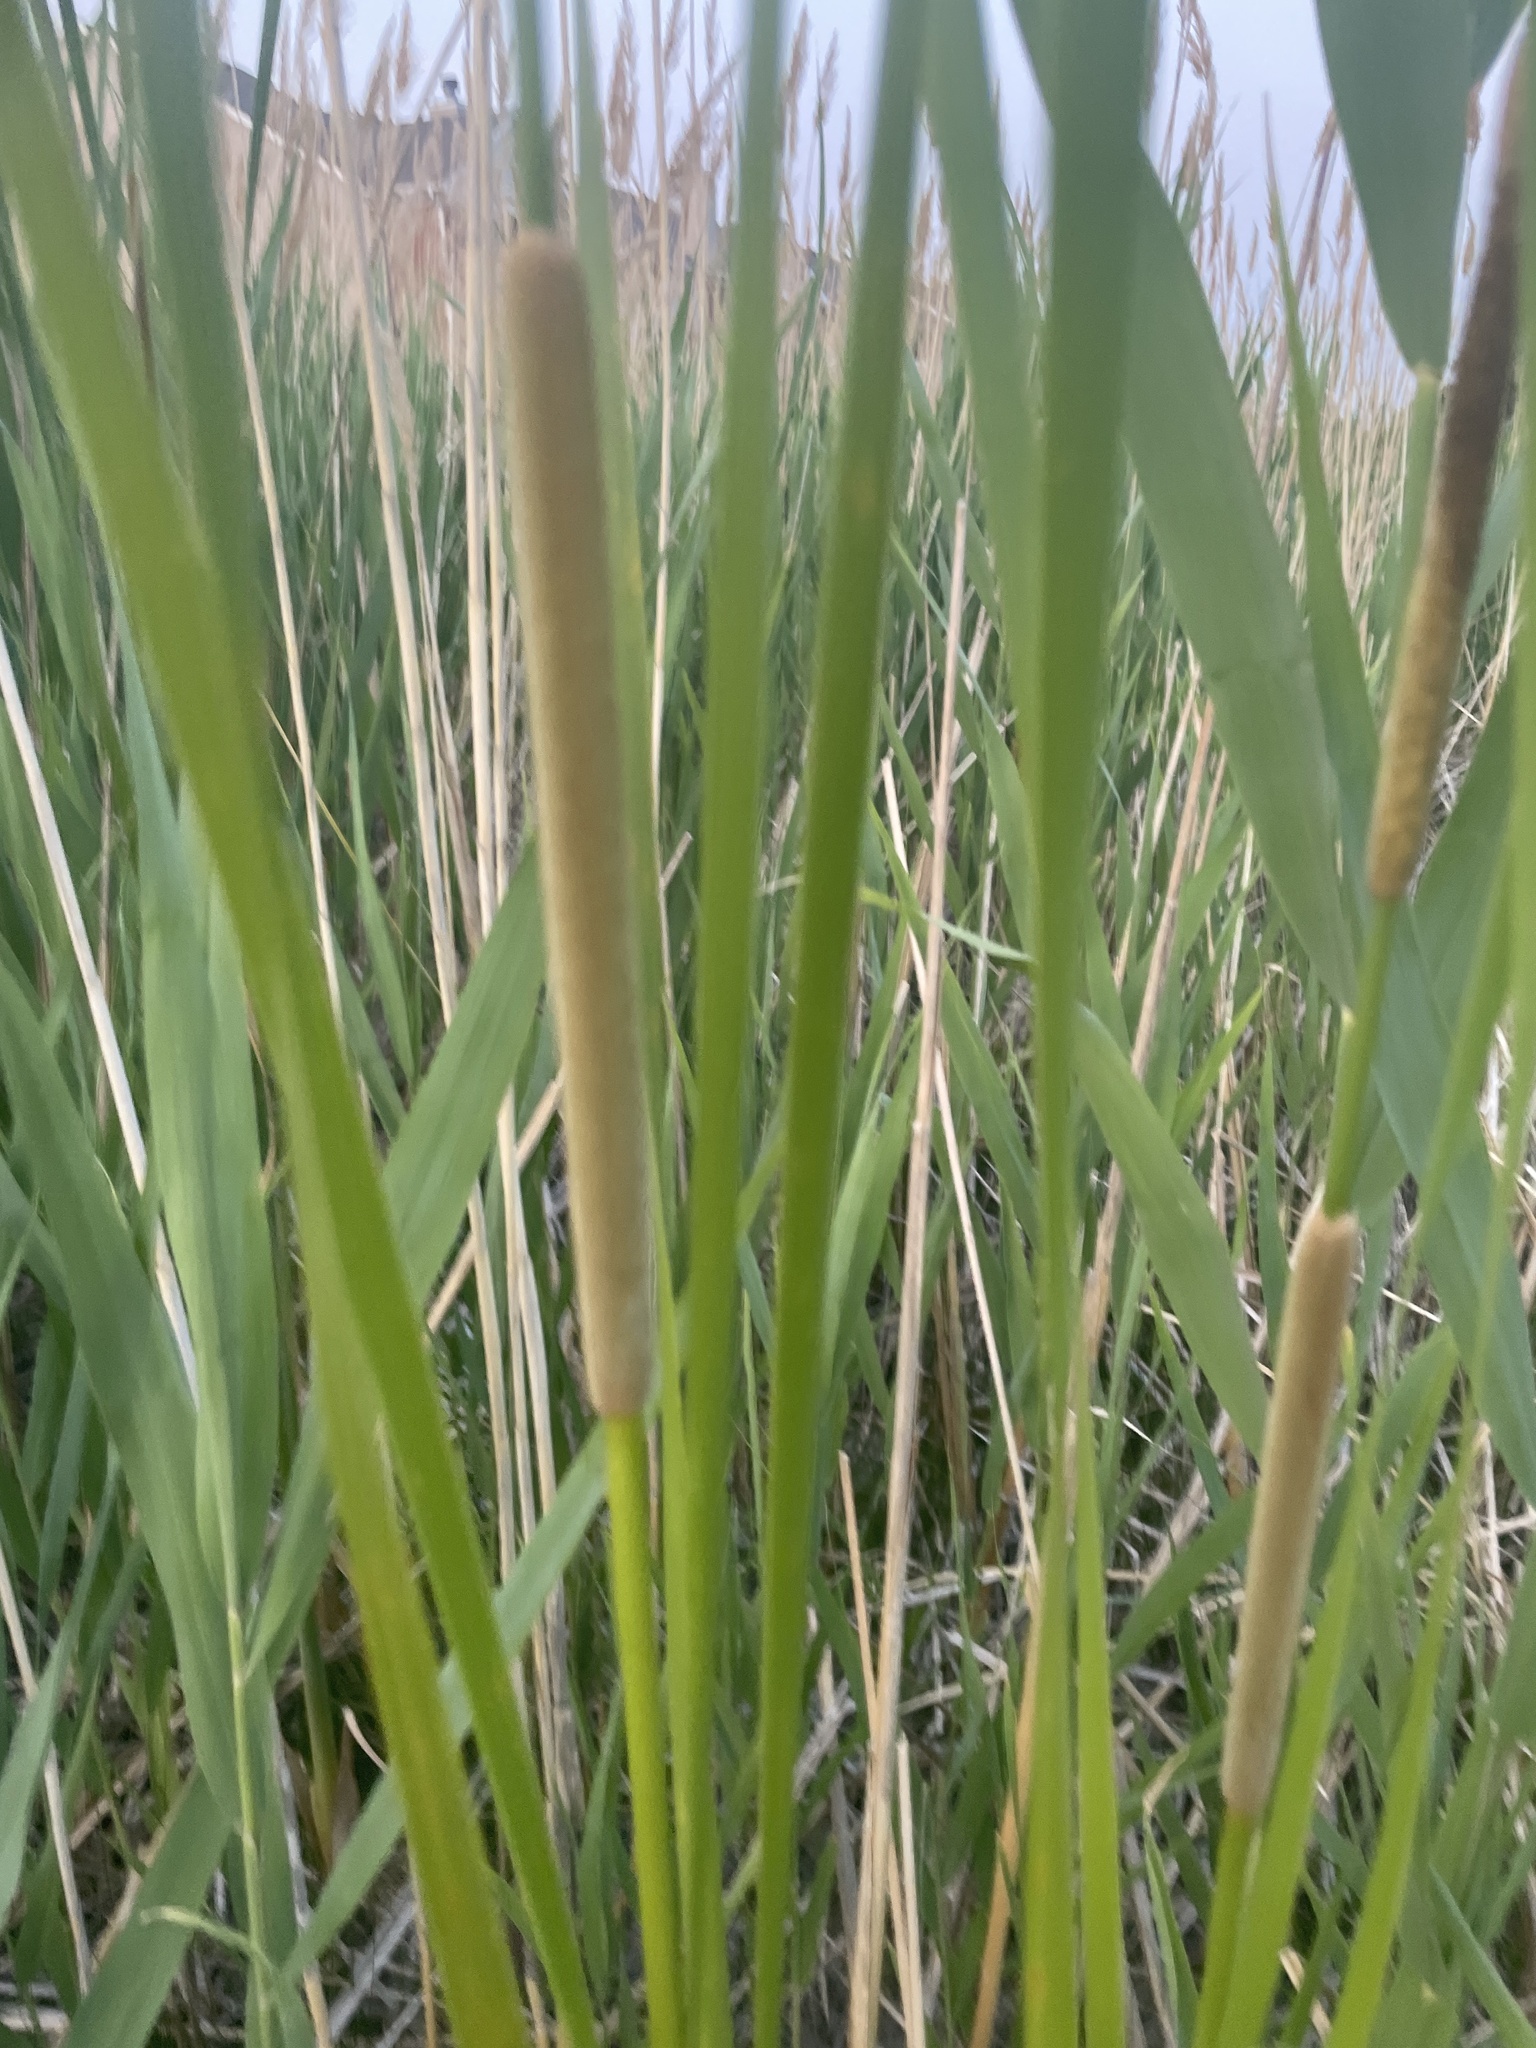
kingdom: Plantae
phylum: Tracheophyta
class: Liliopsida
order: Poales
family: Typhaceae
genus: Typha
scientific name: Typha angustifolia
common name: Lesser bulrush
